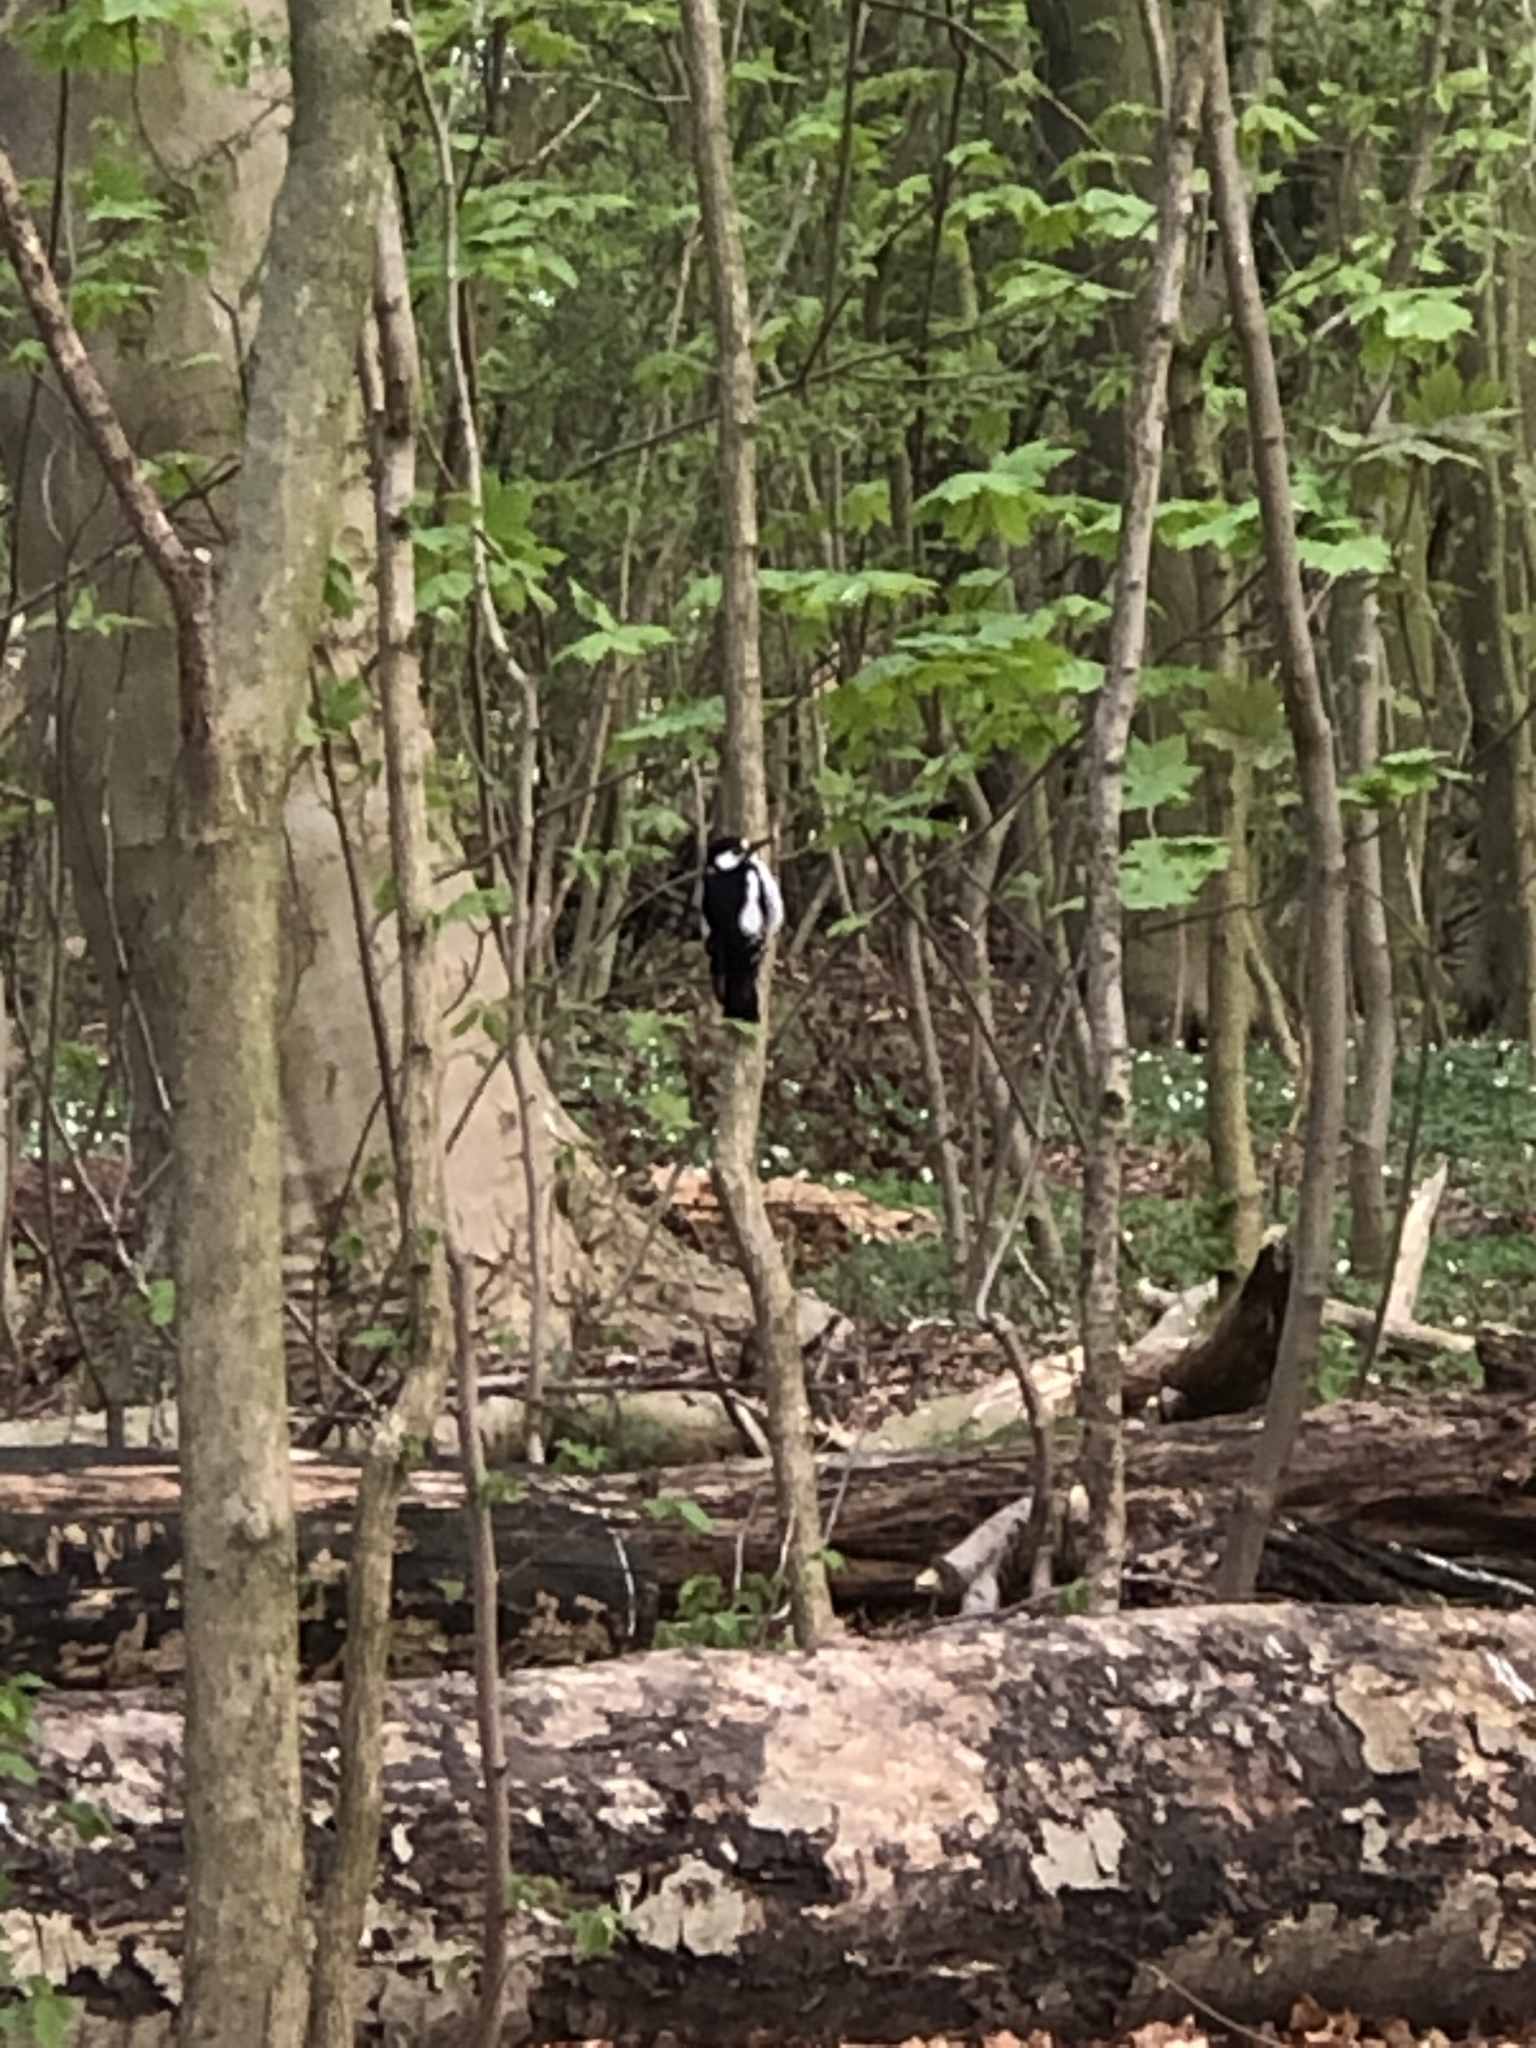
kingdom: Animalia
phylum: Chordata
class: Aves
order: Piciformes
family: Picidae
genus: Dendrocopos
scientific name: Dendrocopos major
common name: Great spotted woodpecker
